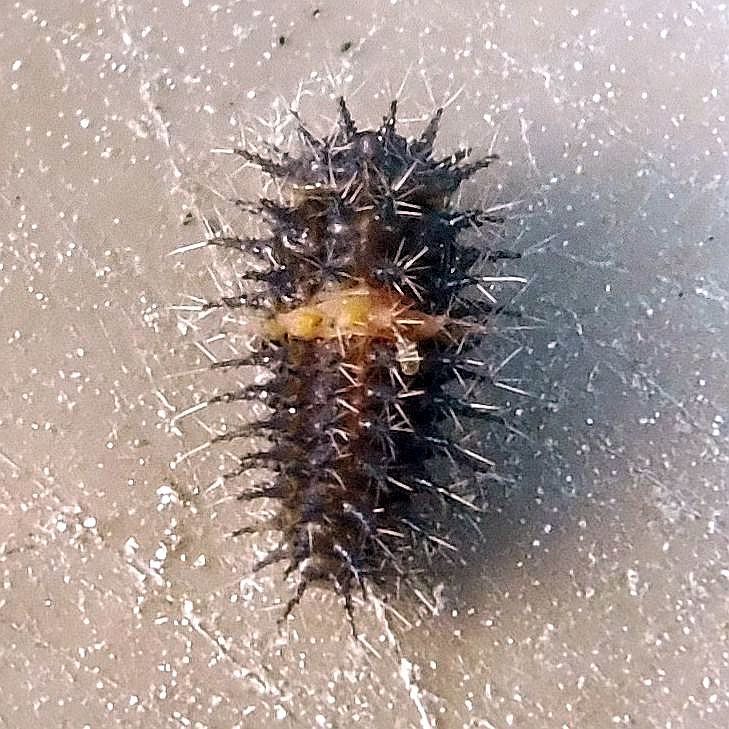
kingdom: Animalia
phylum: Arthropoda
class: Insecta
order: Coleoptera
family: Coccinellidae
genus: Chilocorus
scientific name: Chilocorus bipustulatus
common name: Heather ladybird
